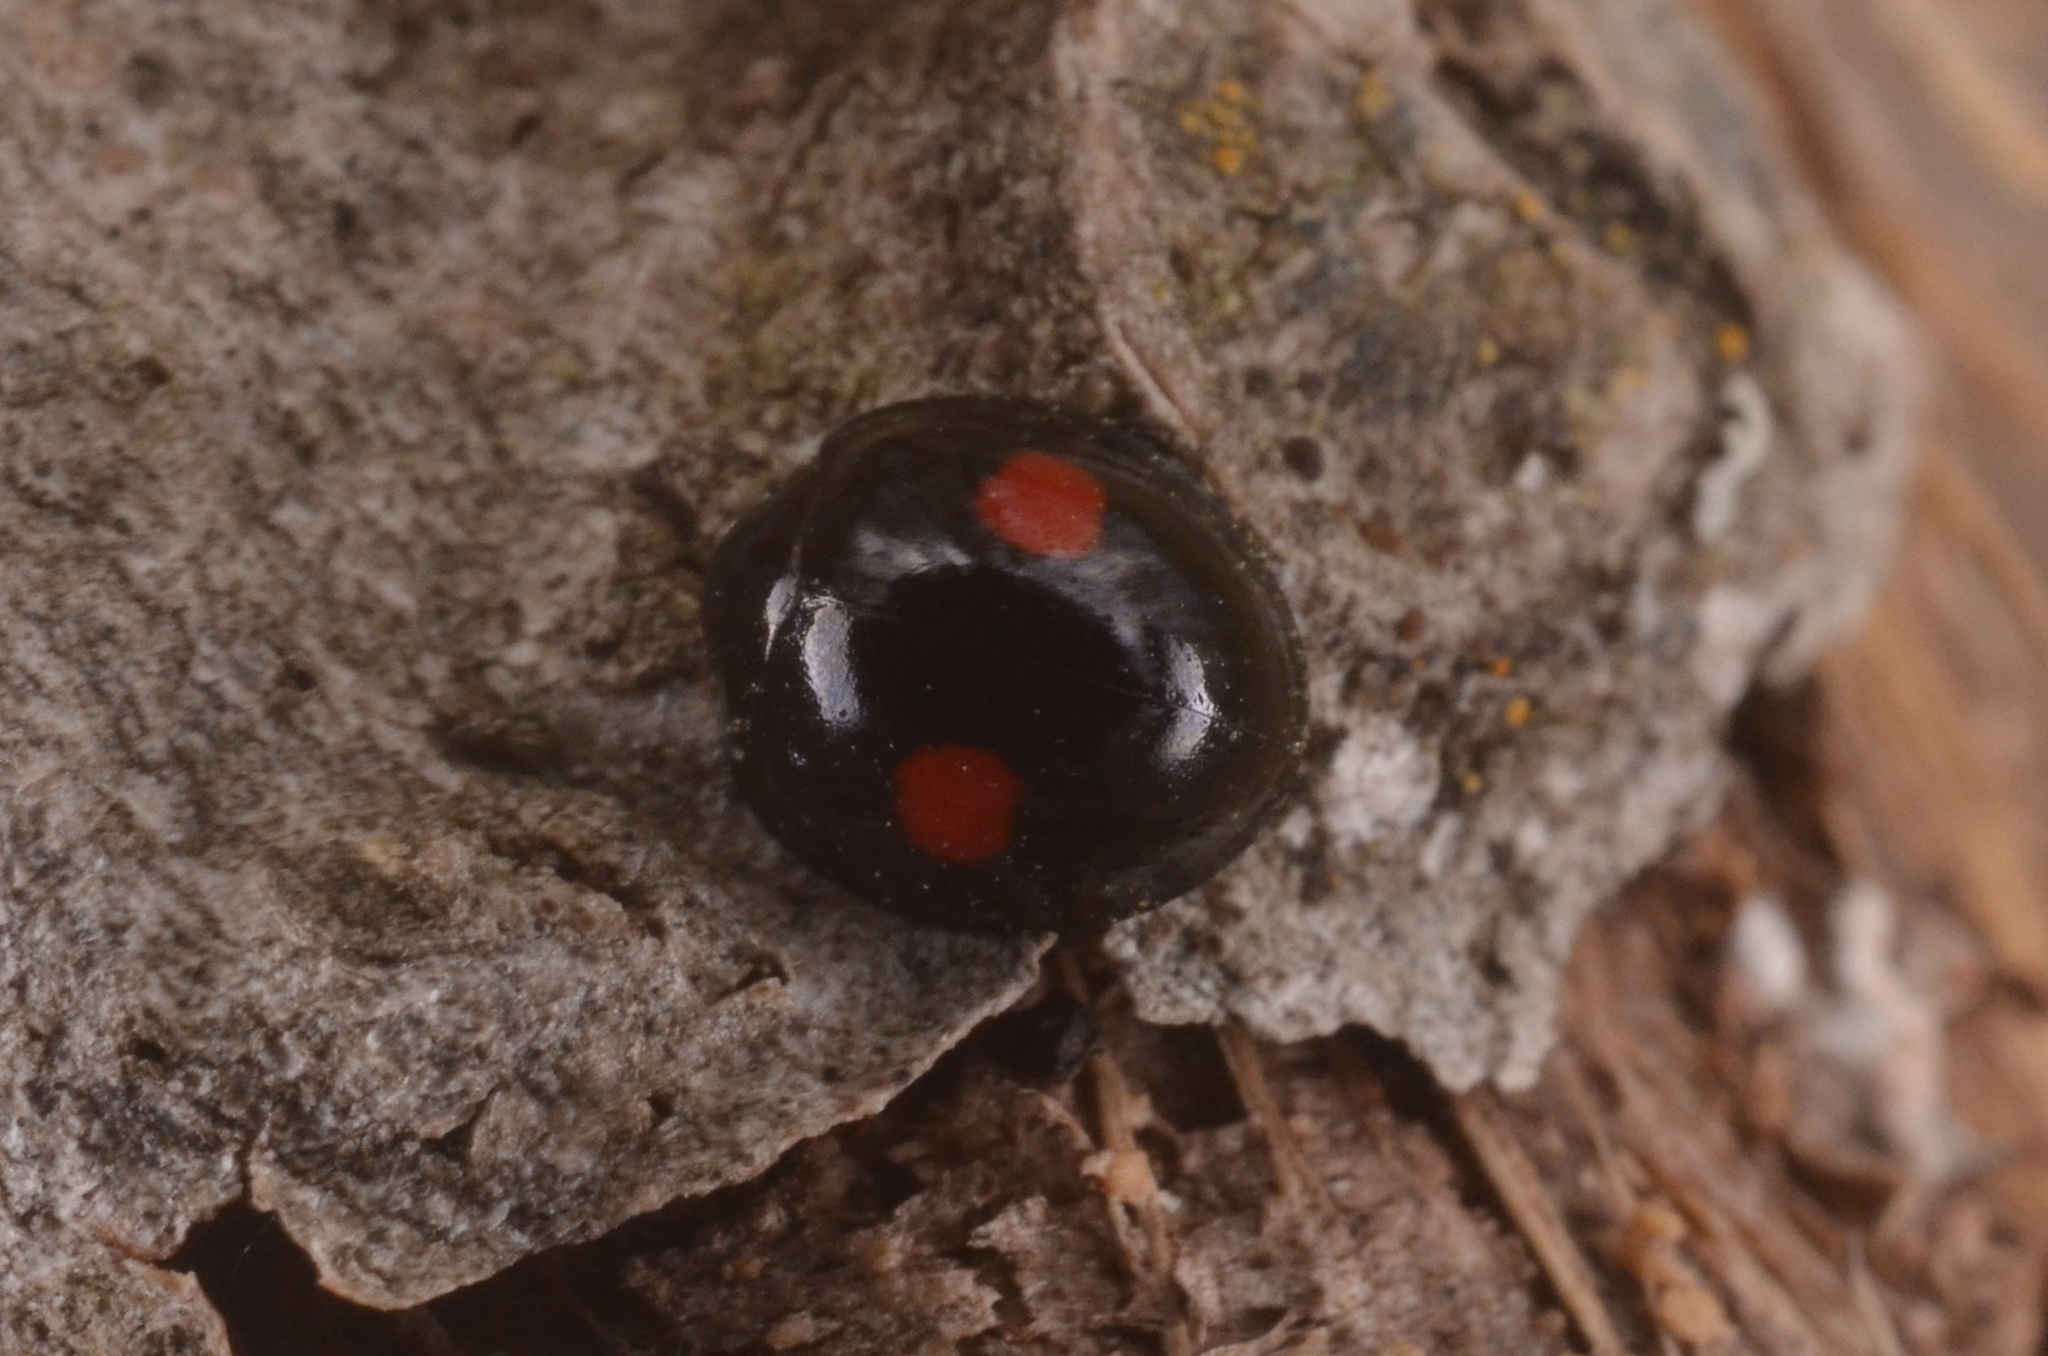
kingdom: Animalia
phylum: Arthropoda
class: Insecta
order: Coleoptera
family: Coccinellidae
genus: Chilocorus
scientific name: Chilocorus renipustulatus
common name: Kidney-spot ladybird
